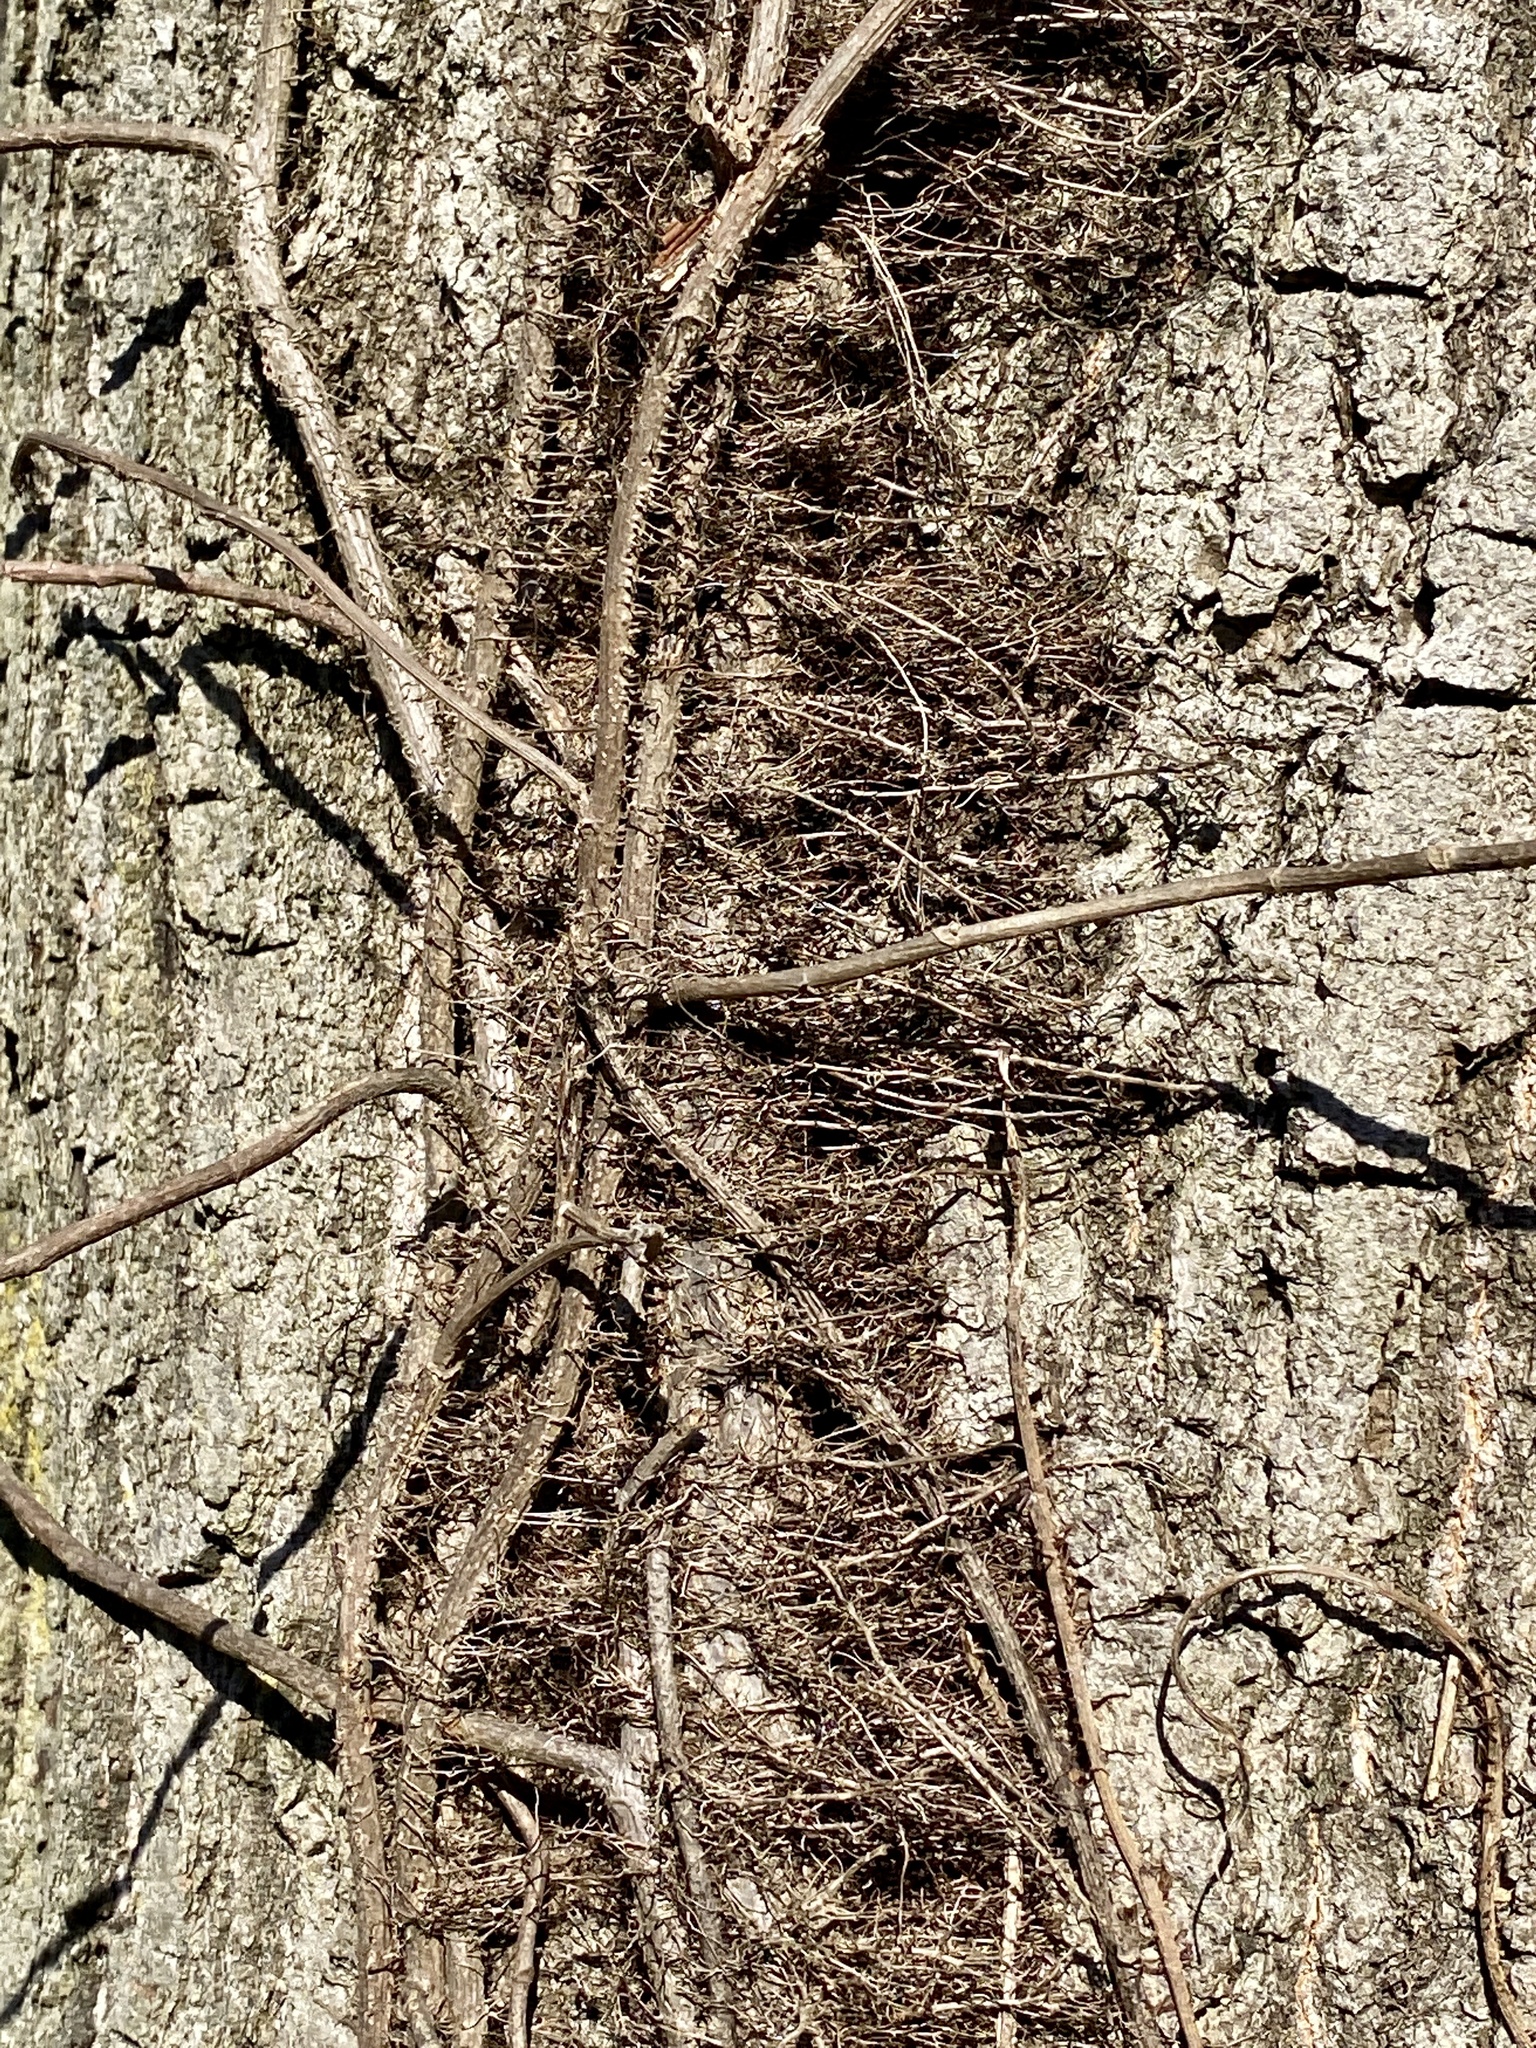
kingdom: Plantae
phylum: Tracheophyta
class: Magnoliopsida
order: Sapindales
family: Anacardiaceae
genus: Toxicodendron
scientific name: Toxicodendron radicans
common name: Poison ivy
